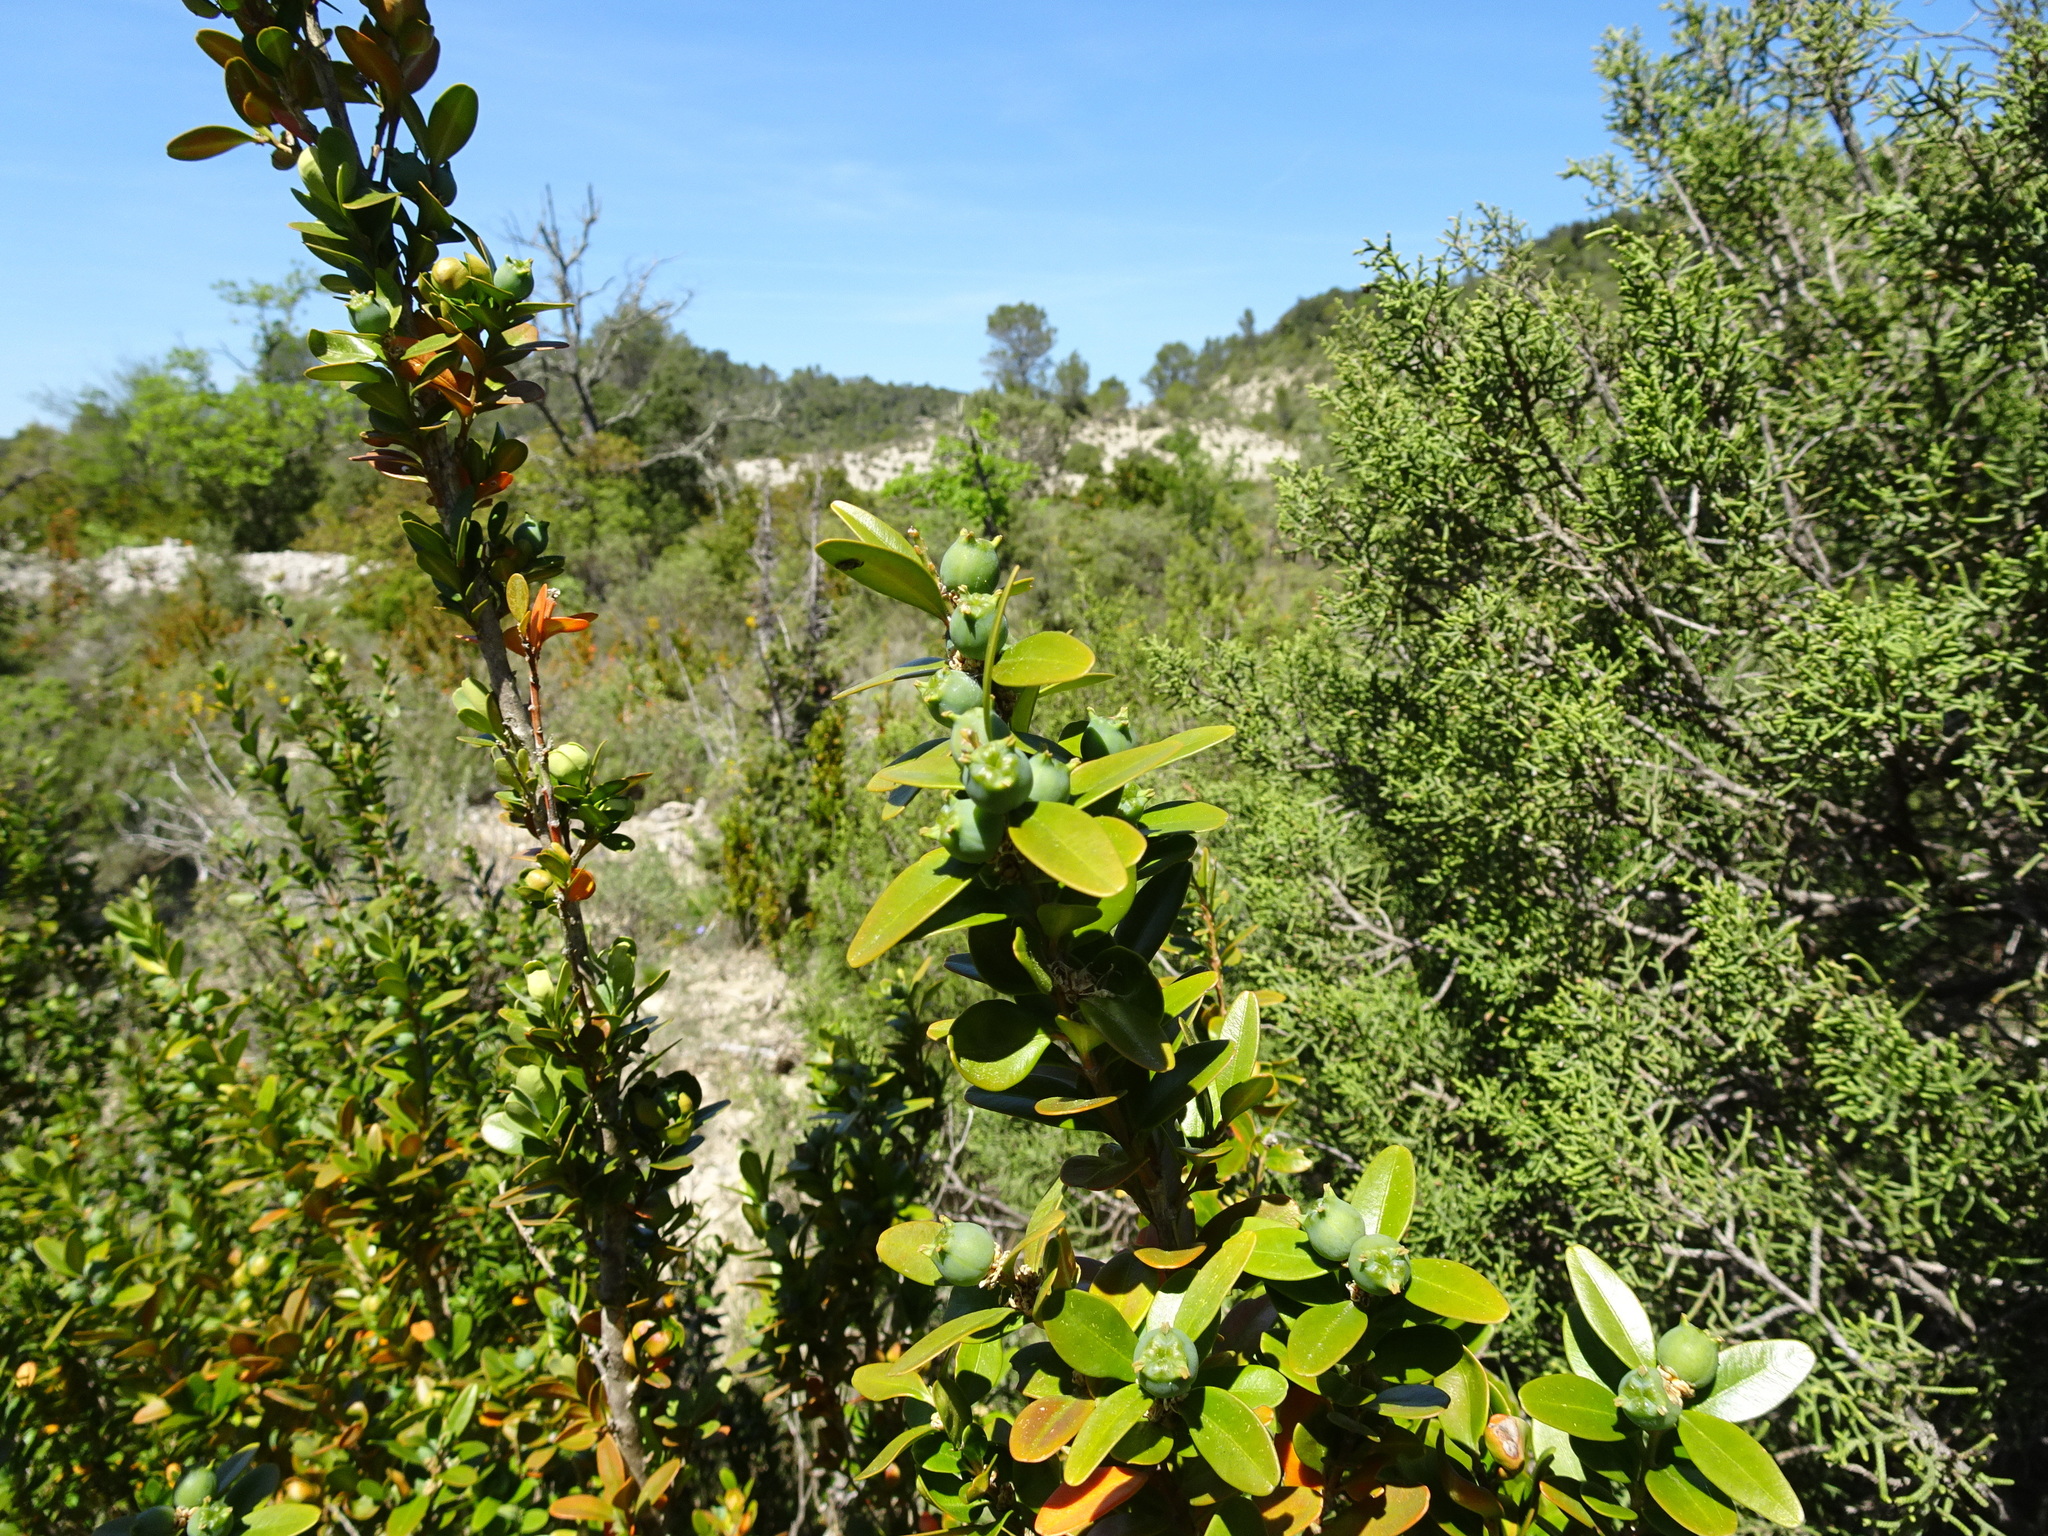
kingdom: Plantae
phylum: Tracheophyta
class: Magnoliopsida
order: Buxales
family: Buxaceae
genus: Buxus
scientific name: Buxus sempervirens
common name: Box
